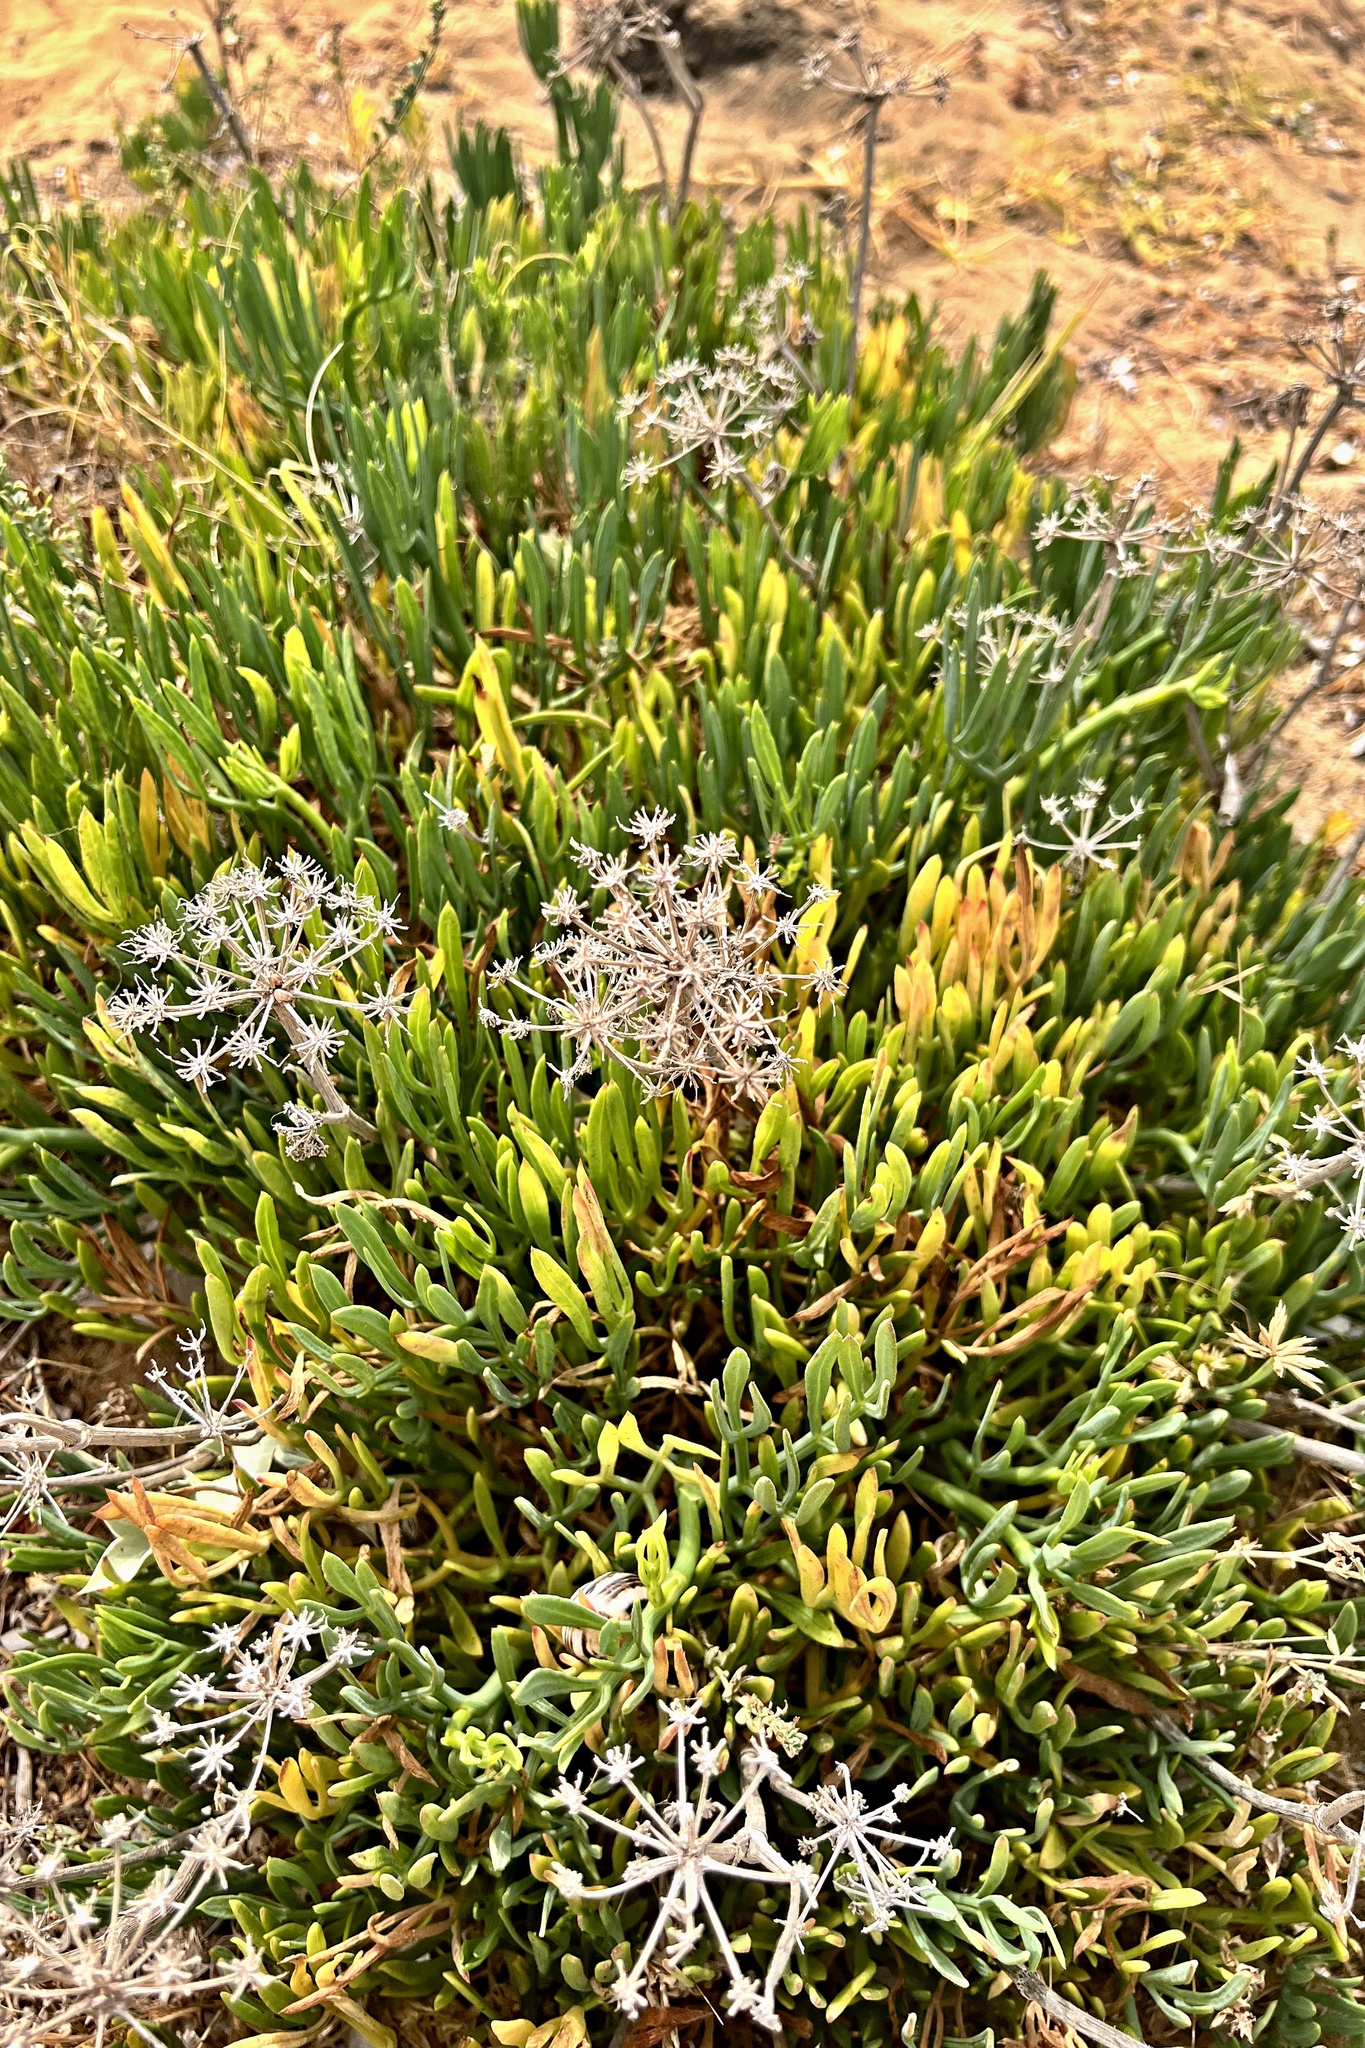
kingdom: Plantae
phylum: Tracheophyta
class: Magnoliopsida
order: Apiales
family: Apiaceae
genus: Crithmum
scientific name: Crithmum maritimum
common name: Rock samphire
